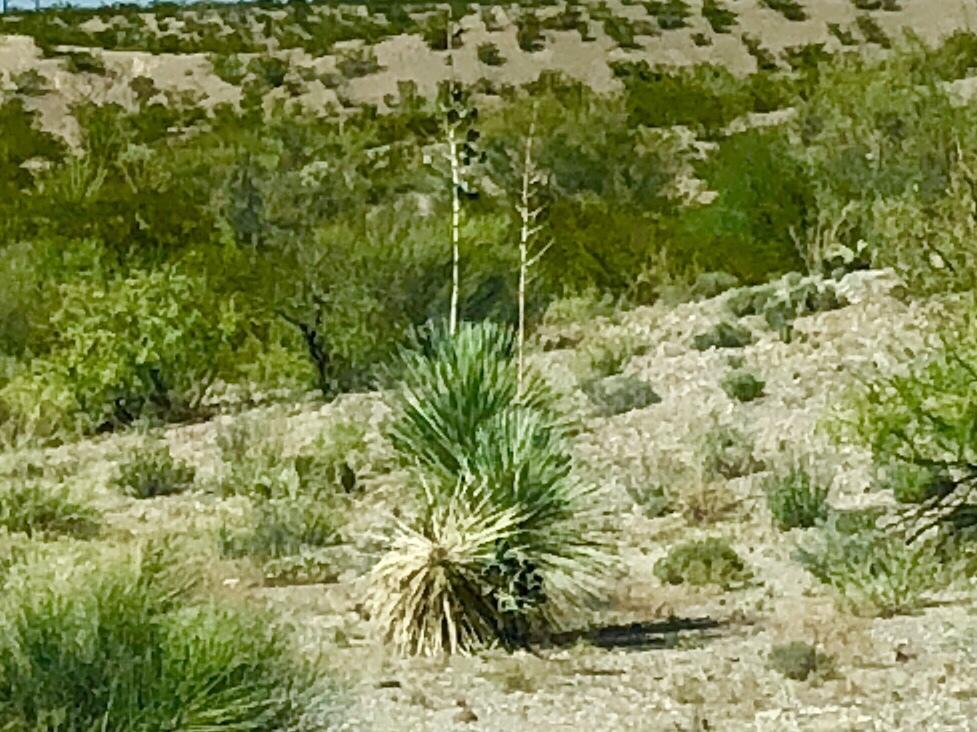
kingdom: Plantae
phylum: Tracheophyta
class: Liliopsida
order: Asparagales
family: Asparagaceae
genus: Yucca
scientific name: Yucca elata
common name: Palmella
